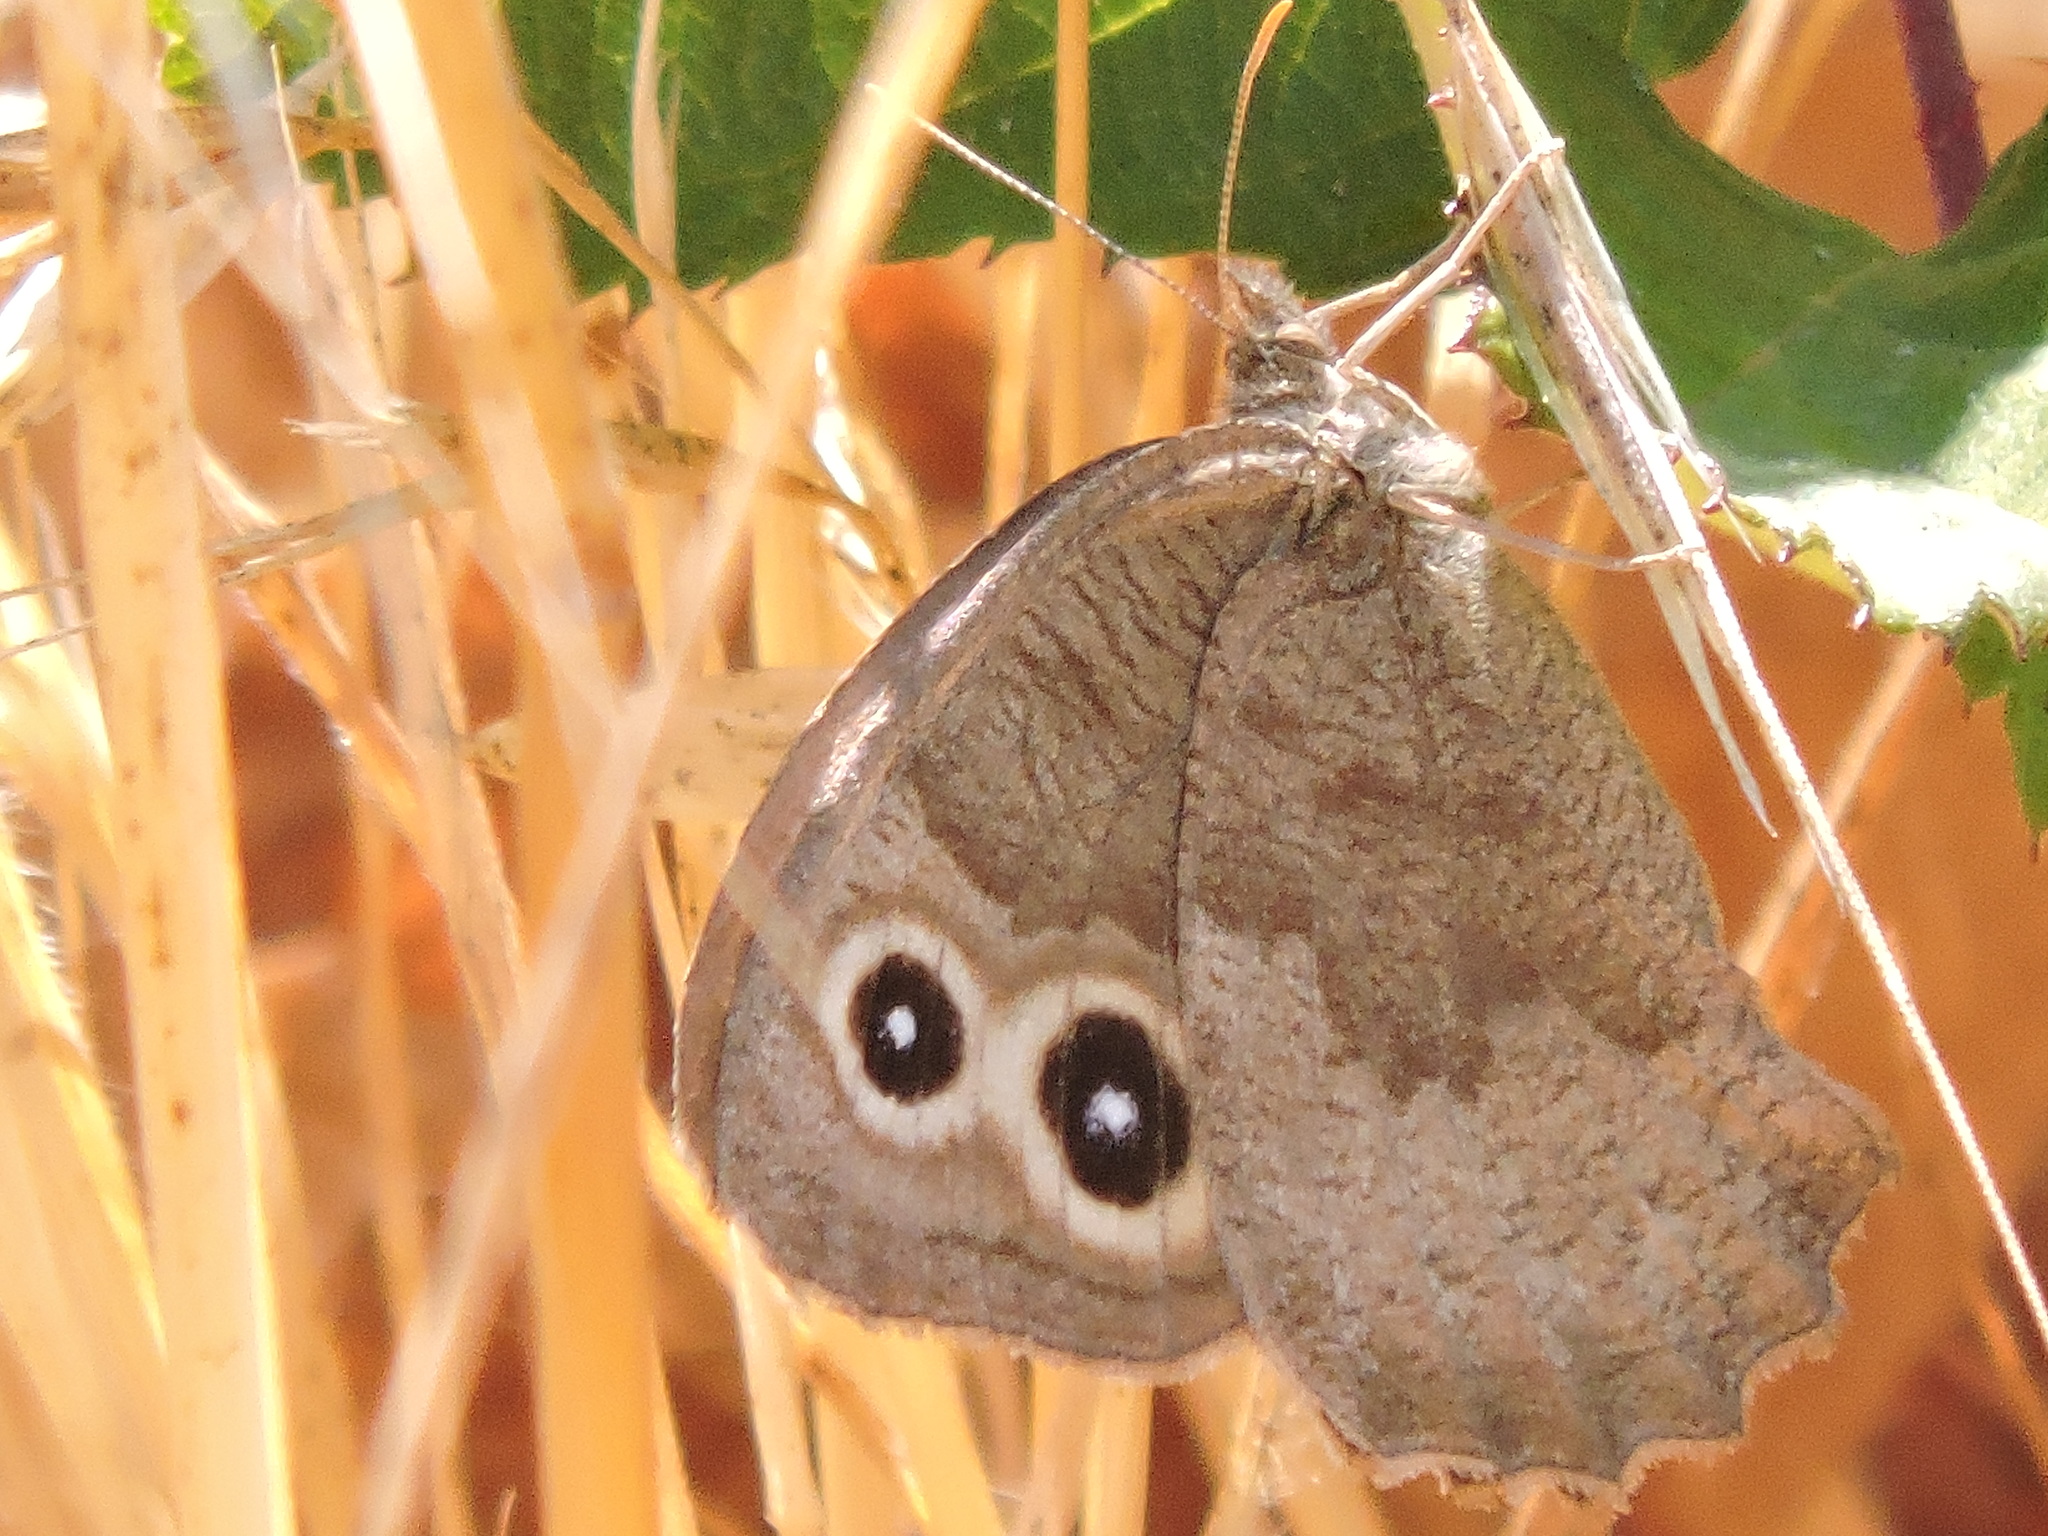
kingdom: Animalia
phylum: Arthropoda
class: Insecta
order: Lepidoptera
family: Nymphalidae
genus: Cercyonis
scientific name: Cercyonis pegala
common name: Common wood-nymph
